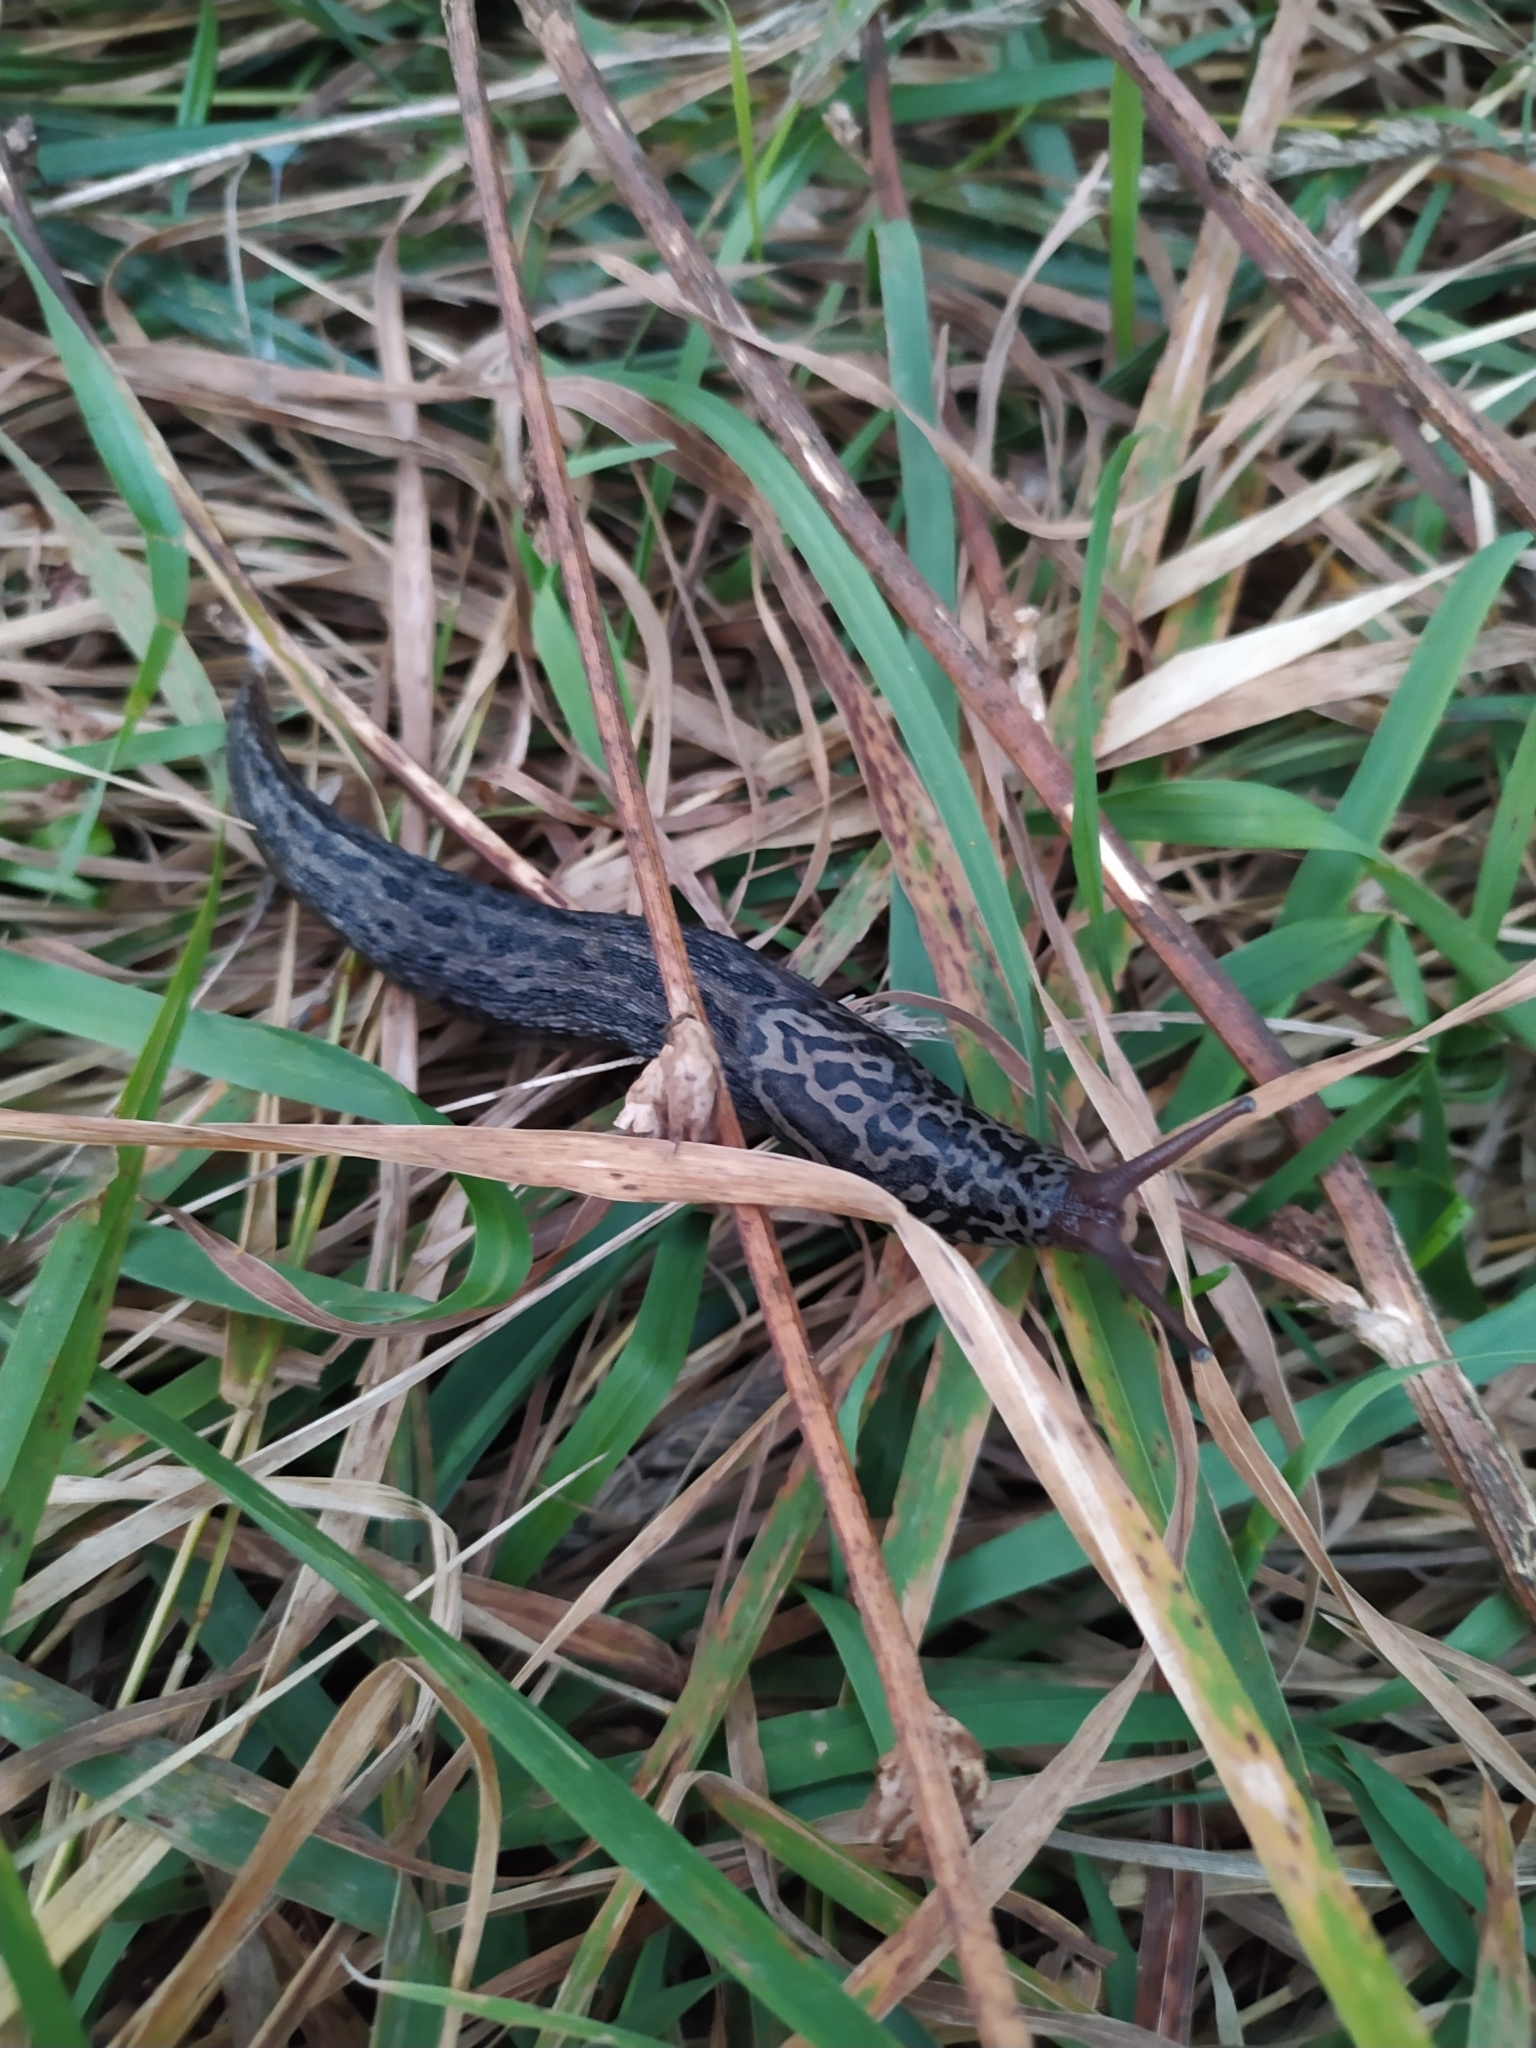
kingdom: Animalia
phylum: Mollusca
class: Gastropoda
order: Stylommatophora
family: Limacidae
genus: Limax
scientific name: Limax maximus
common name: Great grey slug
